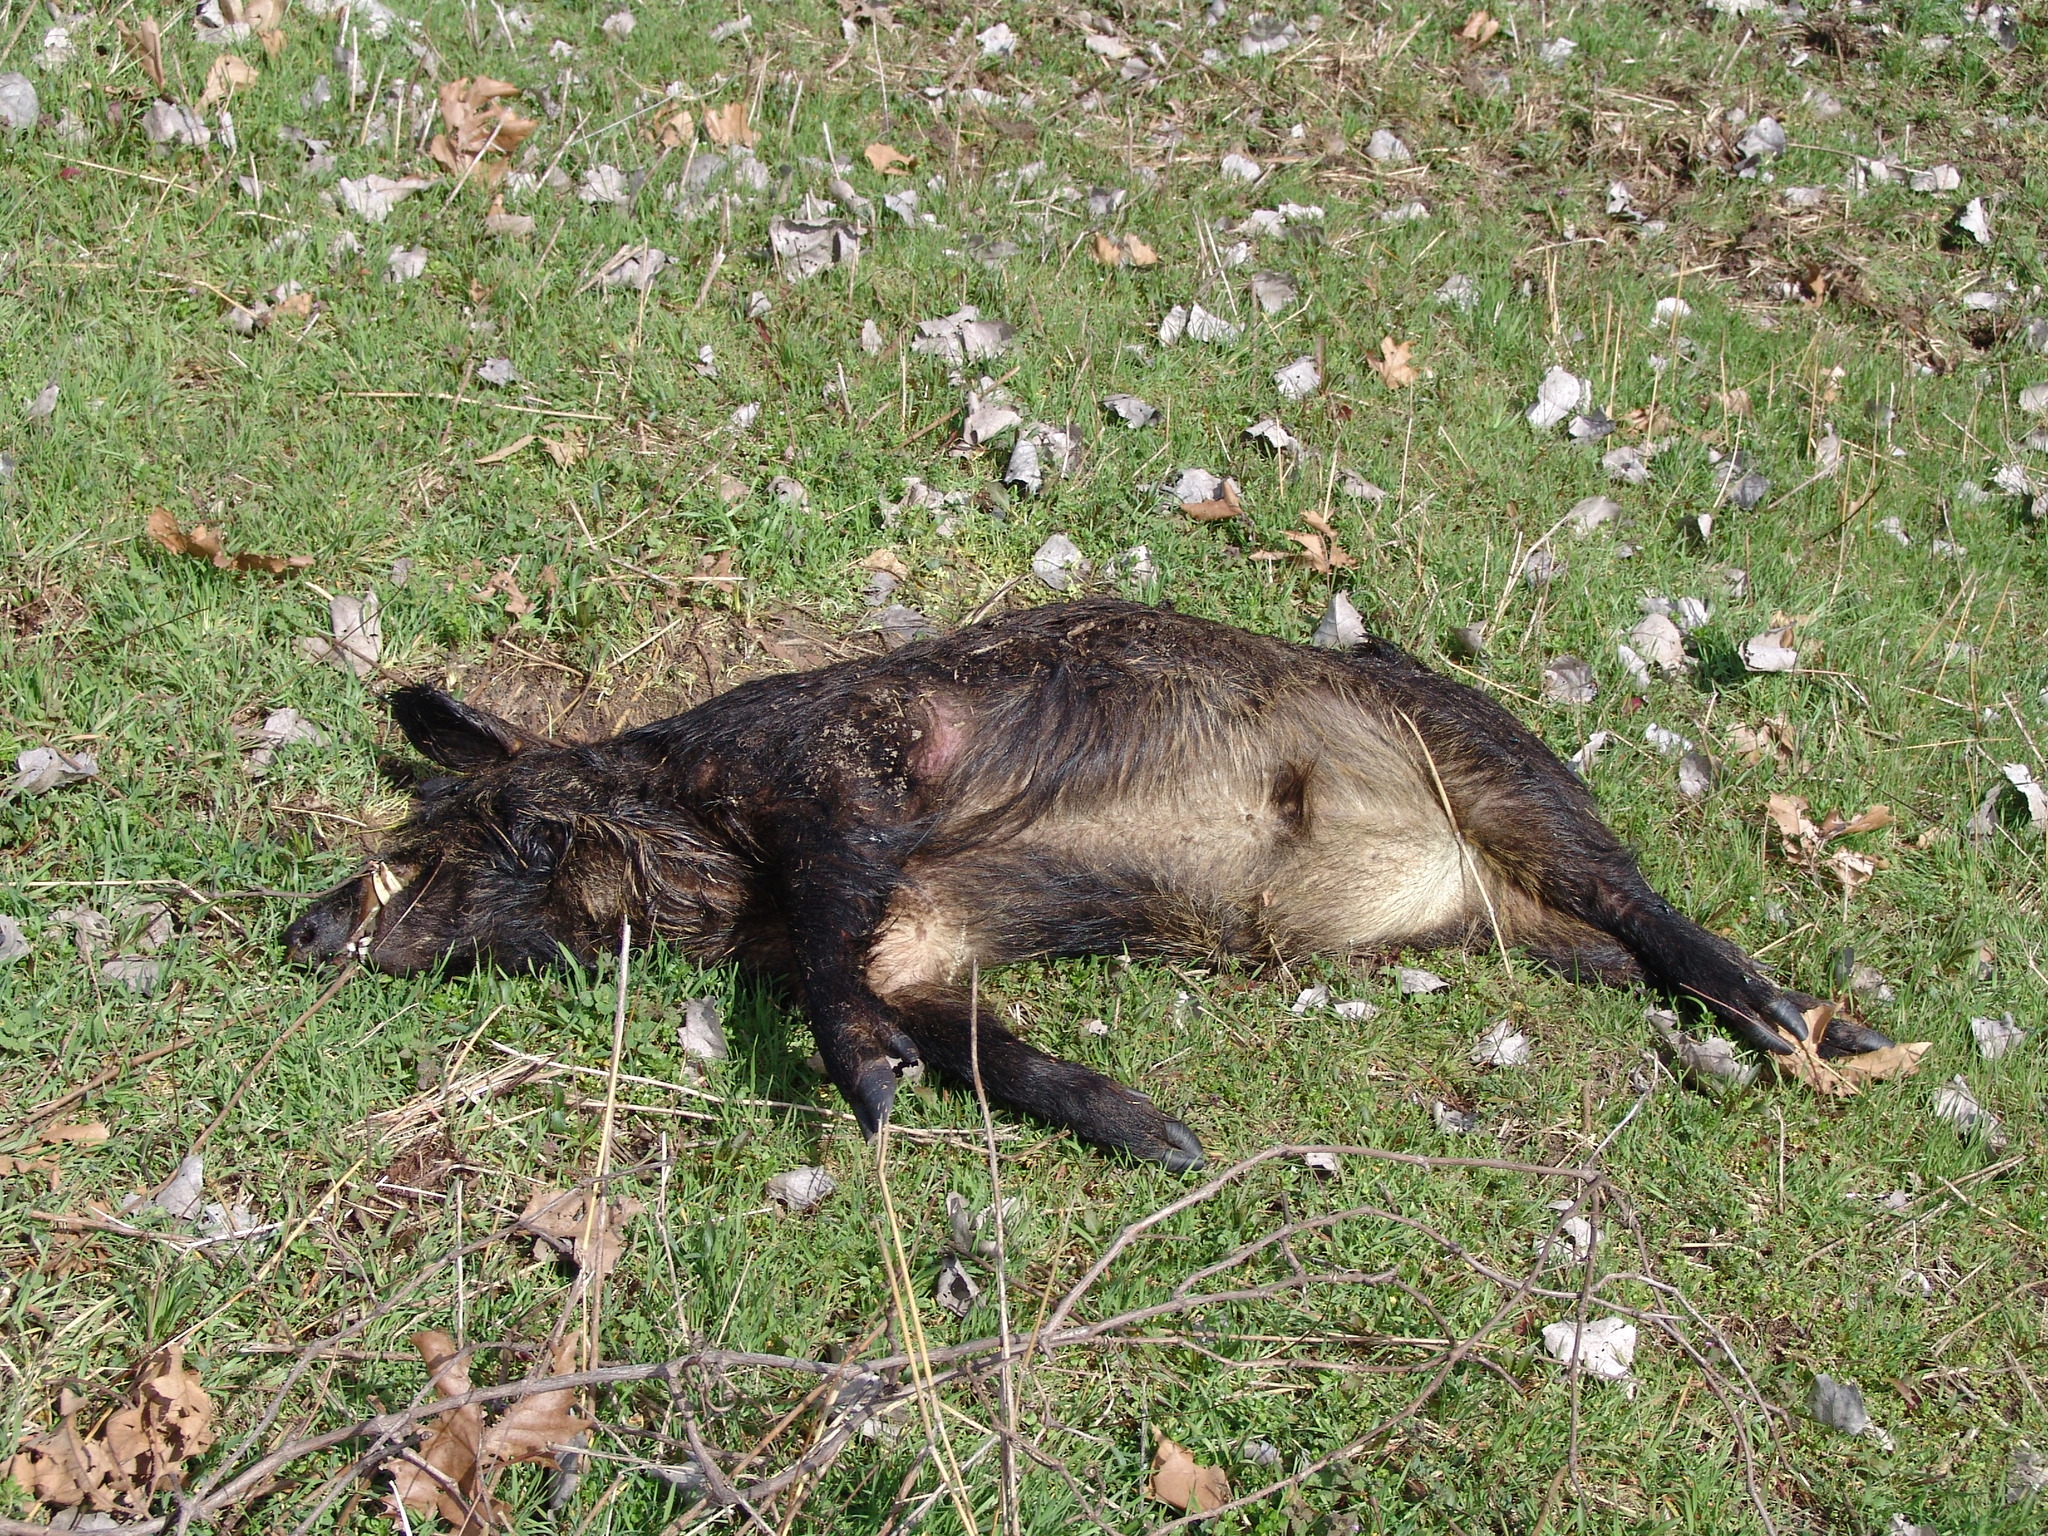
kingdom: Animalia
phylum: Chordata
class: Mammalia
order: Artiodactyla
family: Suidae
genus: Sus
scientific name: Sus scrofa
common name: Wild boar
